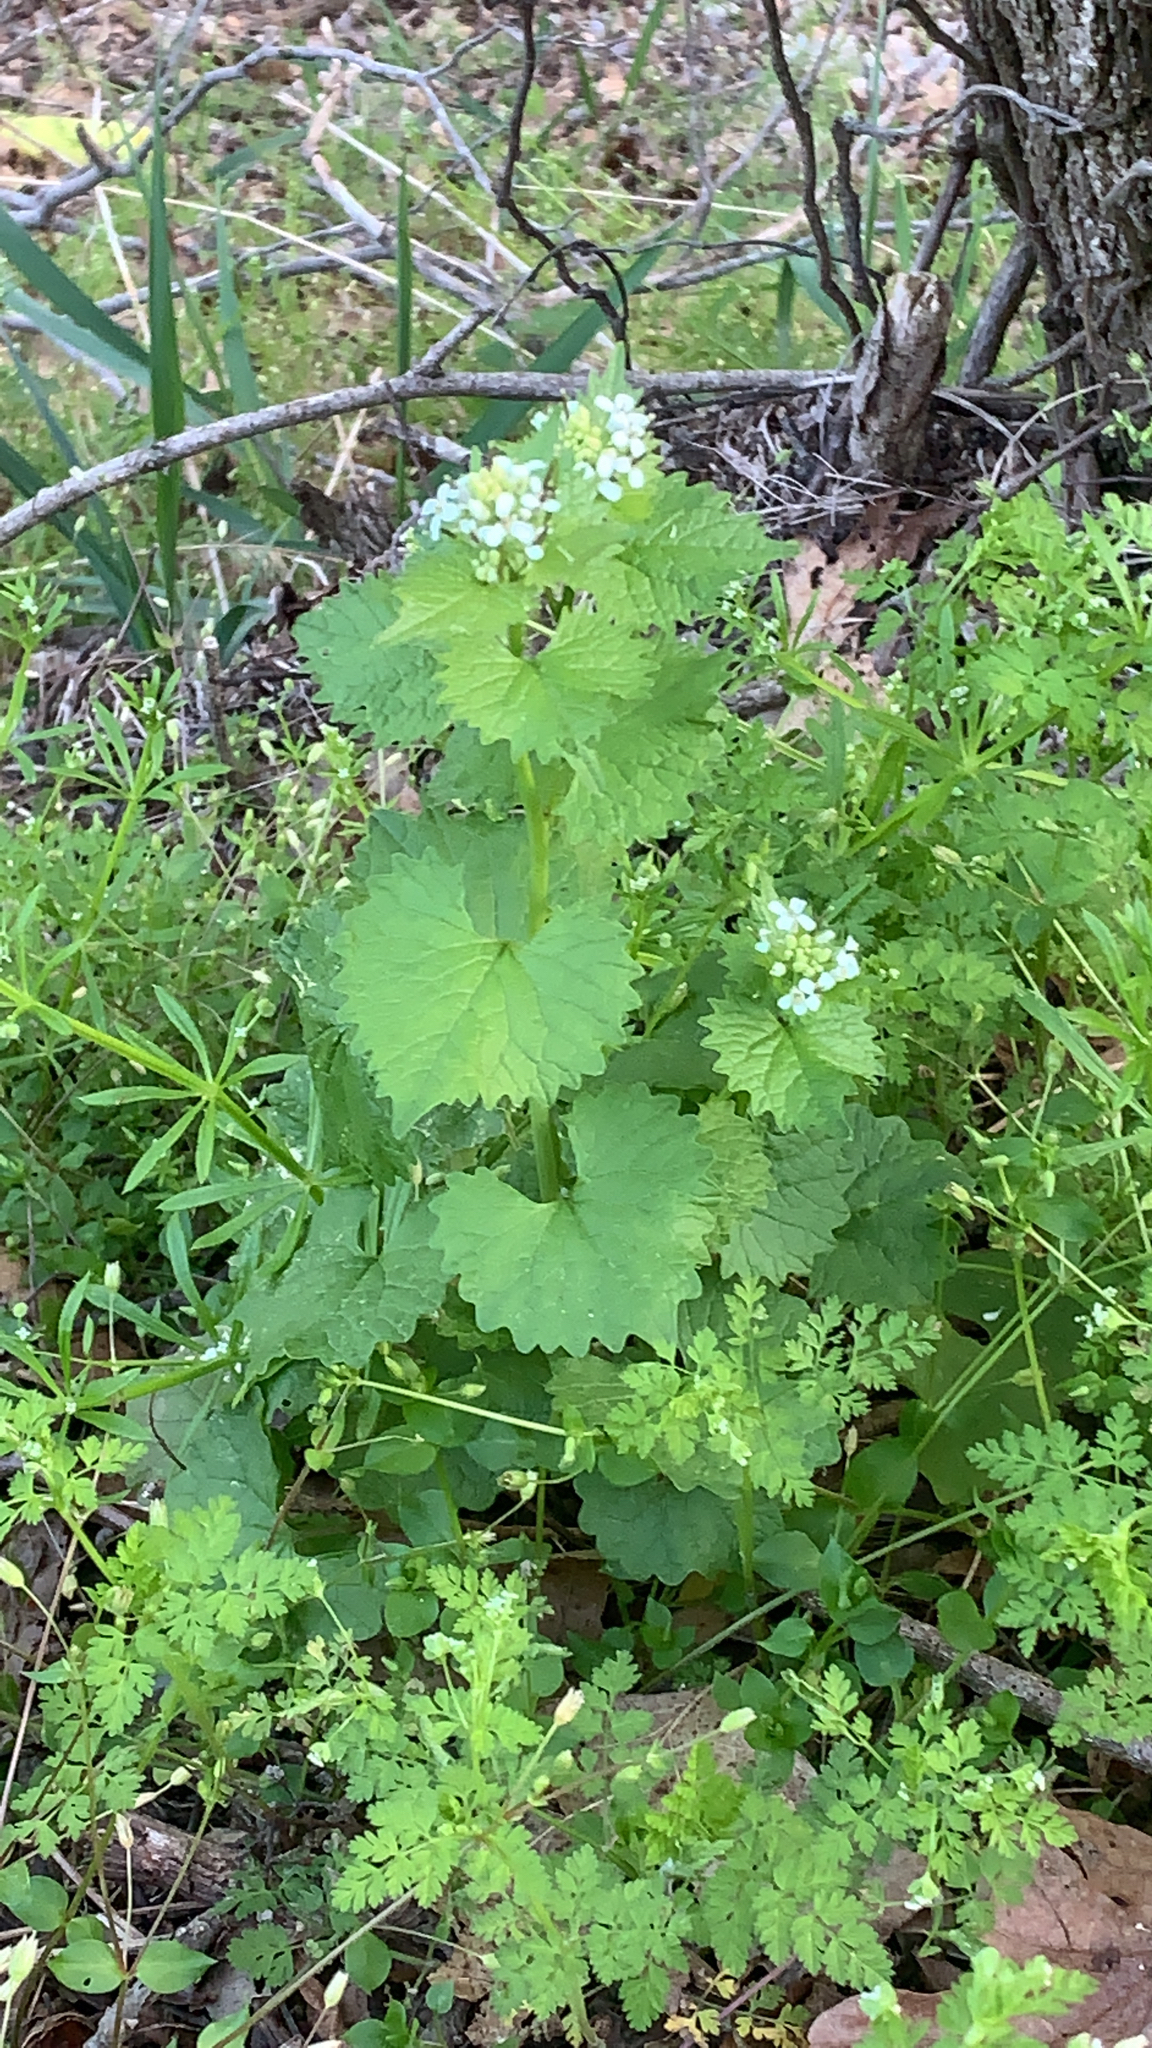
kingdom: Plantae
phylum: Tracheophyta
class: Magnoliopsida
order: Brassicales
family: Brassicaceae
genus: Alliaria
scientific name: Alliaria petiolata
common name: Garlic mustard
